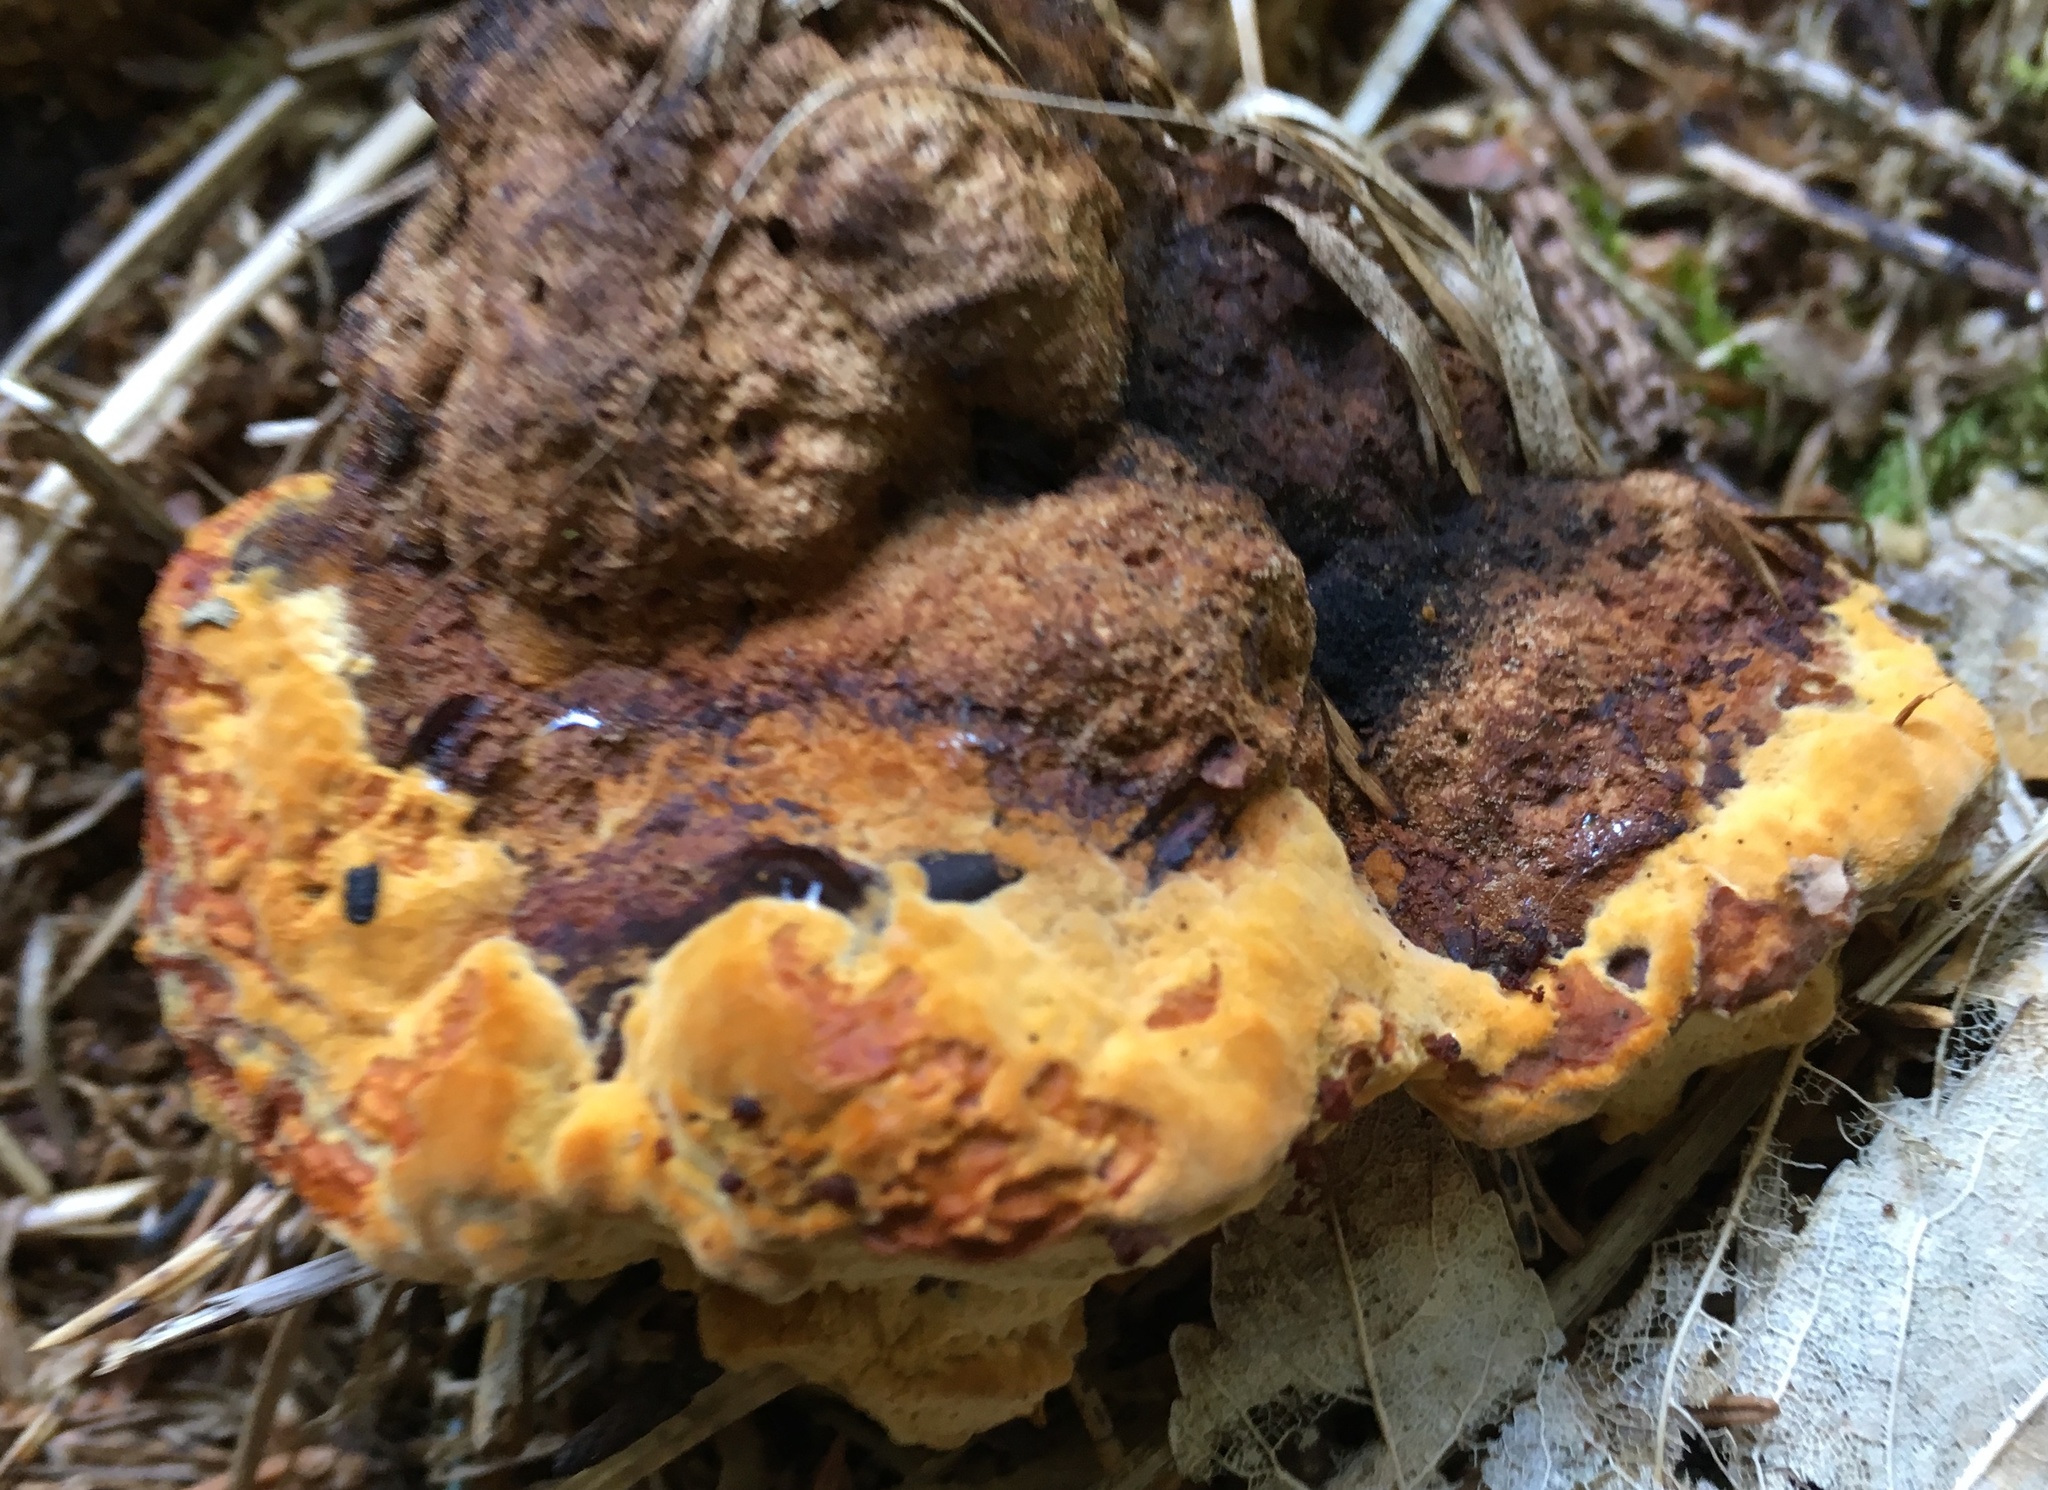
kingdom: Fungi
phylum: Basidiomycota
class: Agaricomycetes
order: Gloeophyllales
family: Gloeophyllaceae
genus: Gloeophyllum
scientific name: Gloeophyllum odoratum
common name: Anise mazegill
